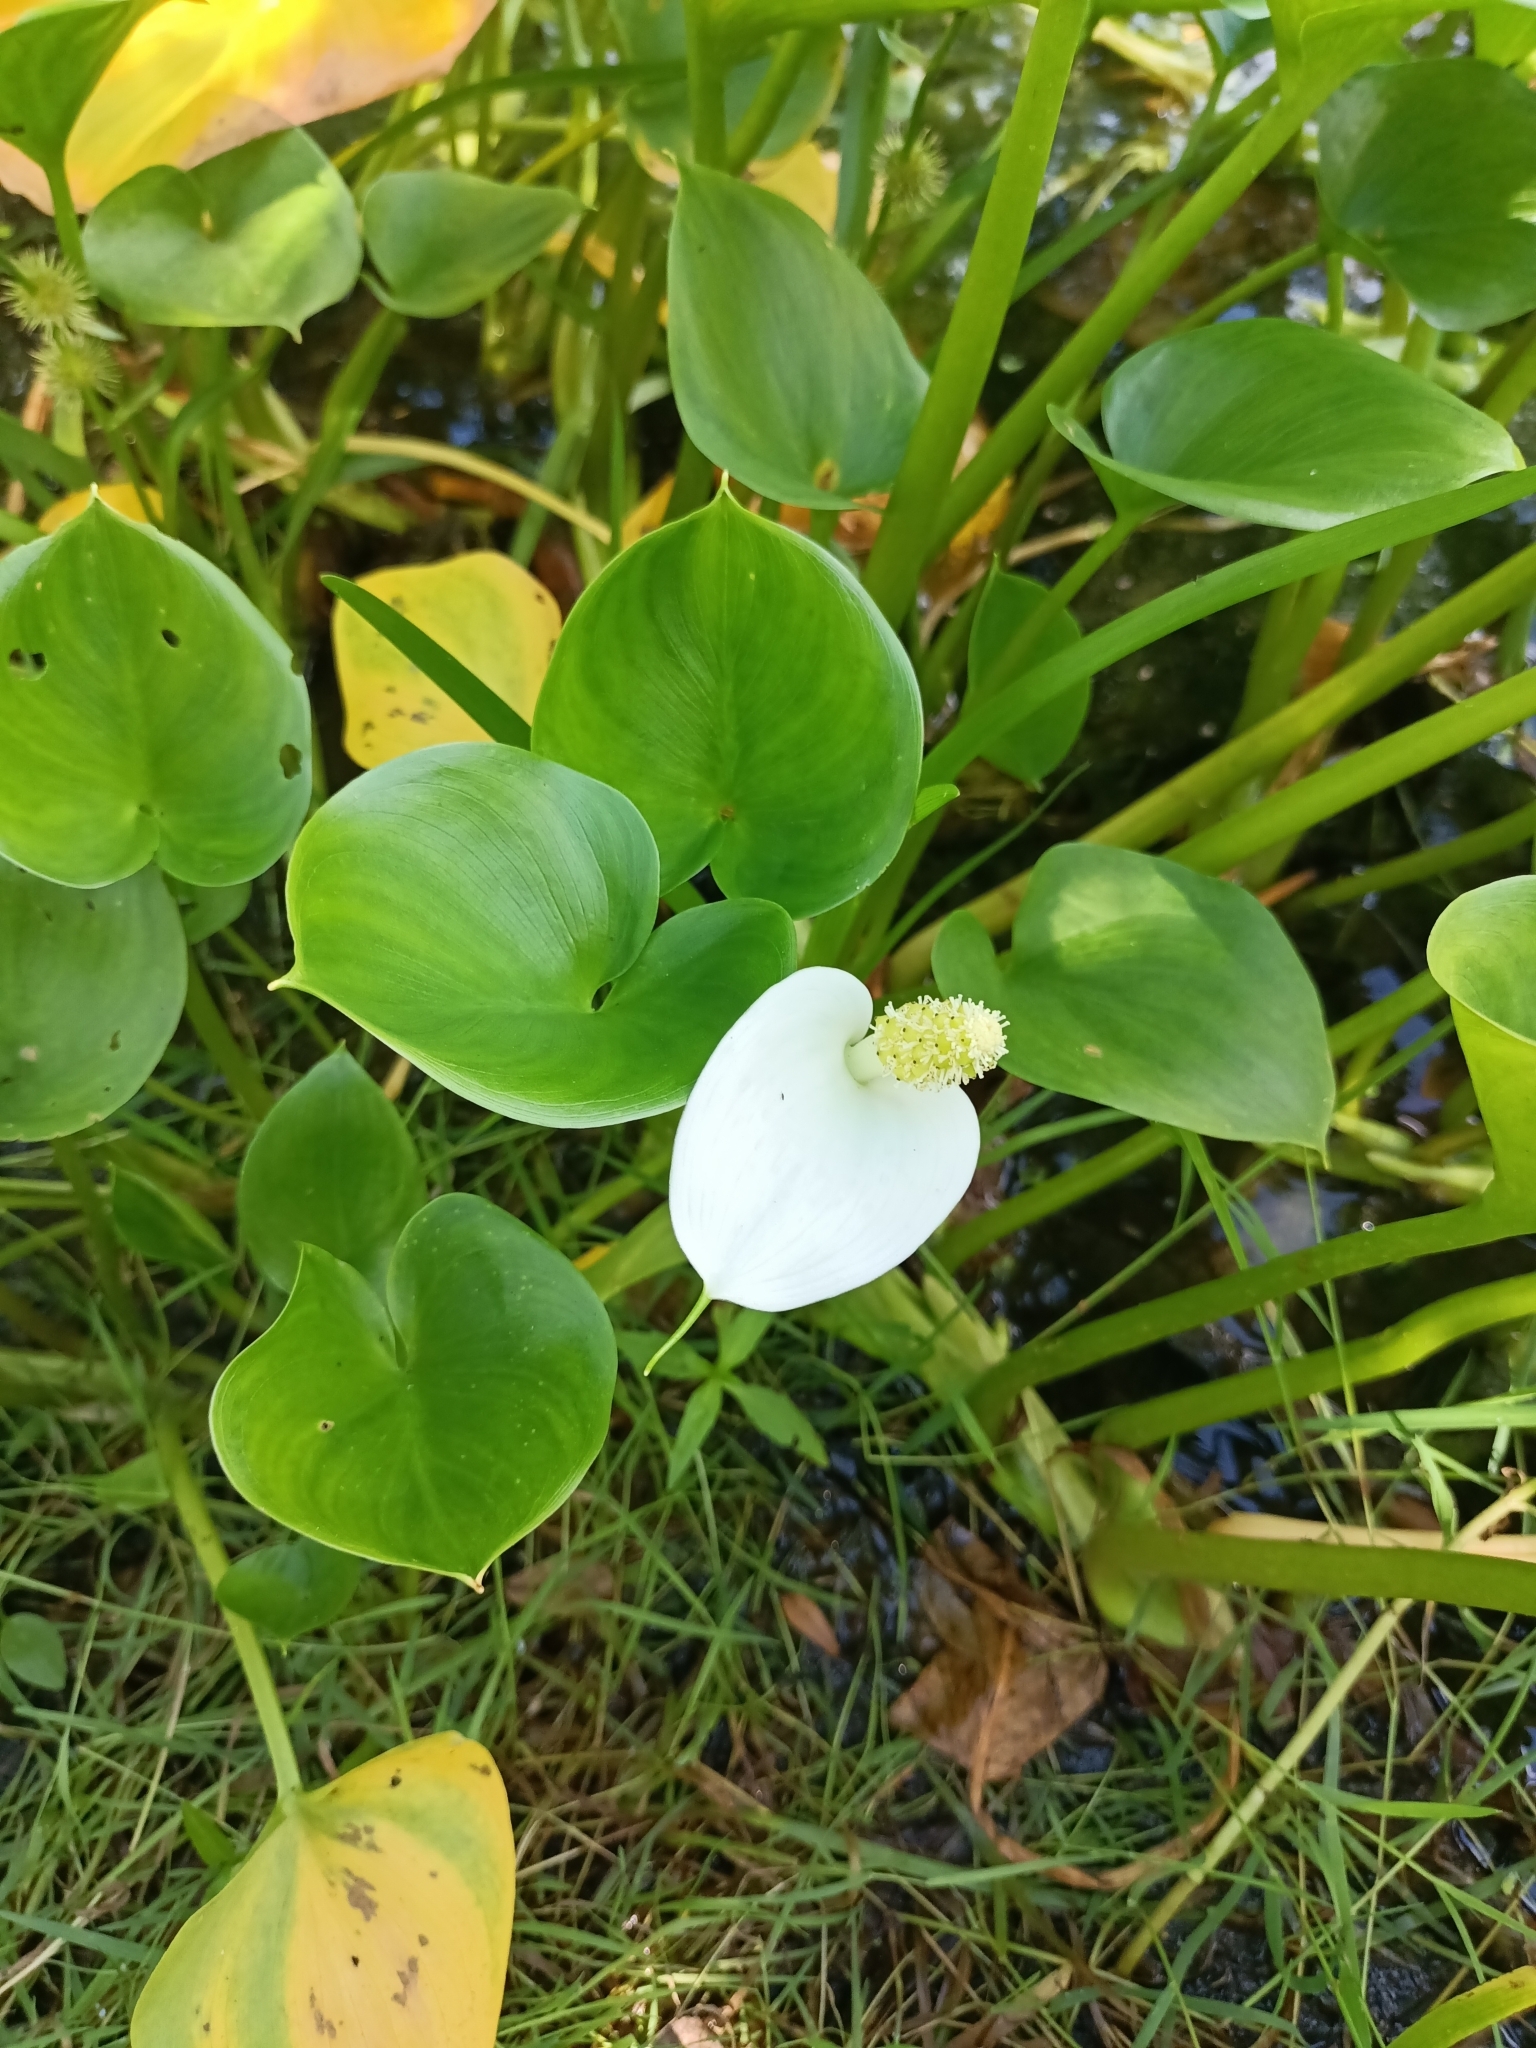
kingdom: Plantae
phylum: Tracheophyta
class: Liliopsida
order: Alismatales
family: Araceae
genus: Calla
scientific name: Calla palustris
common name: Bog arum
